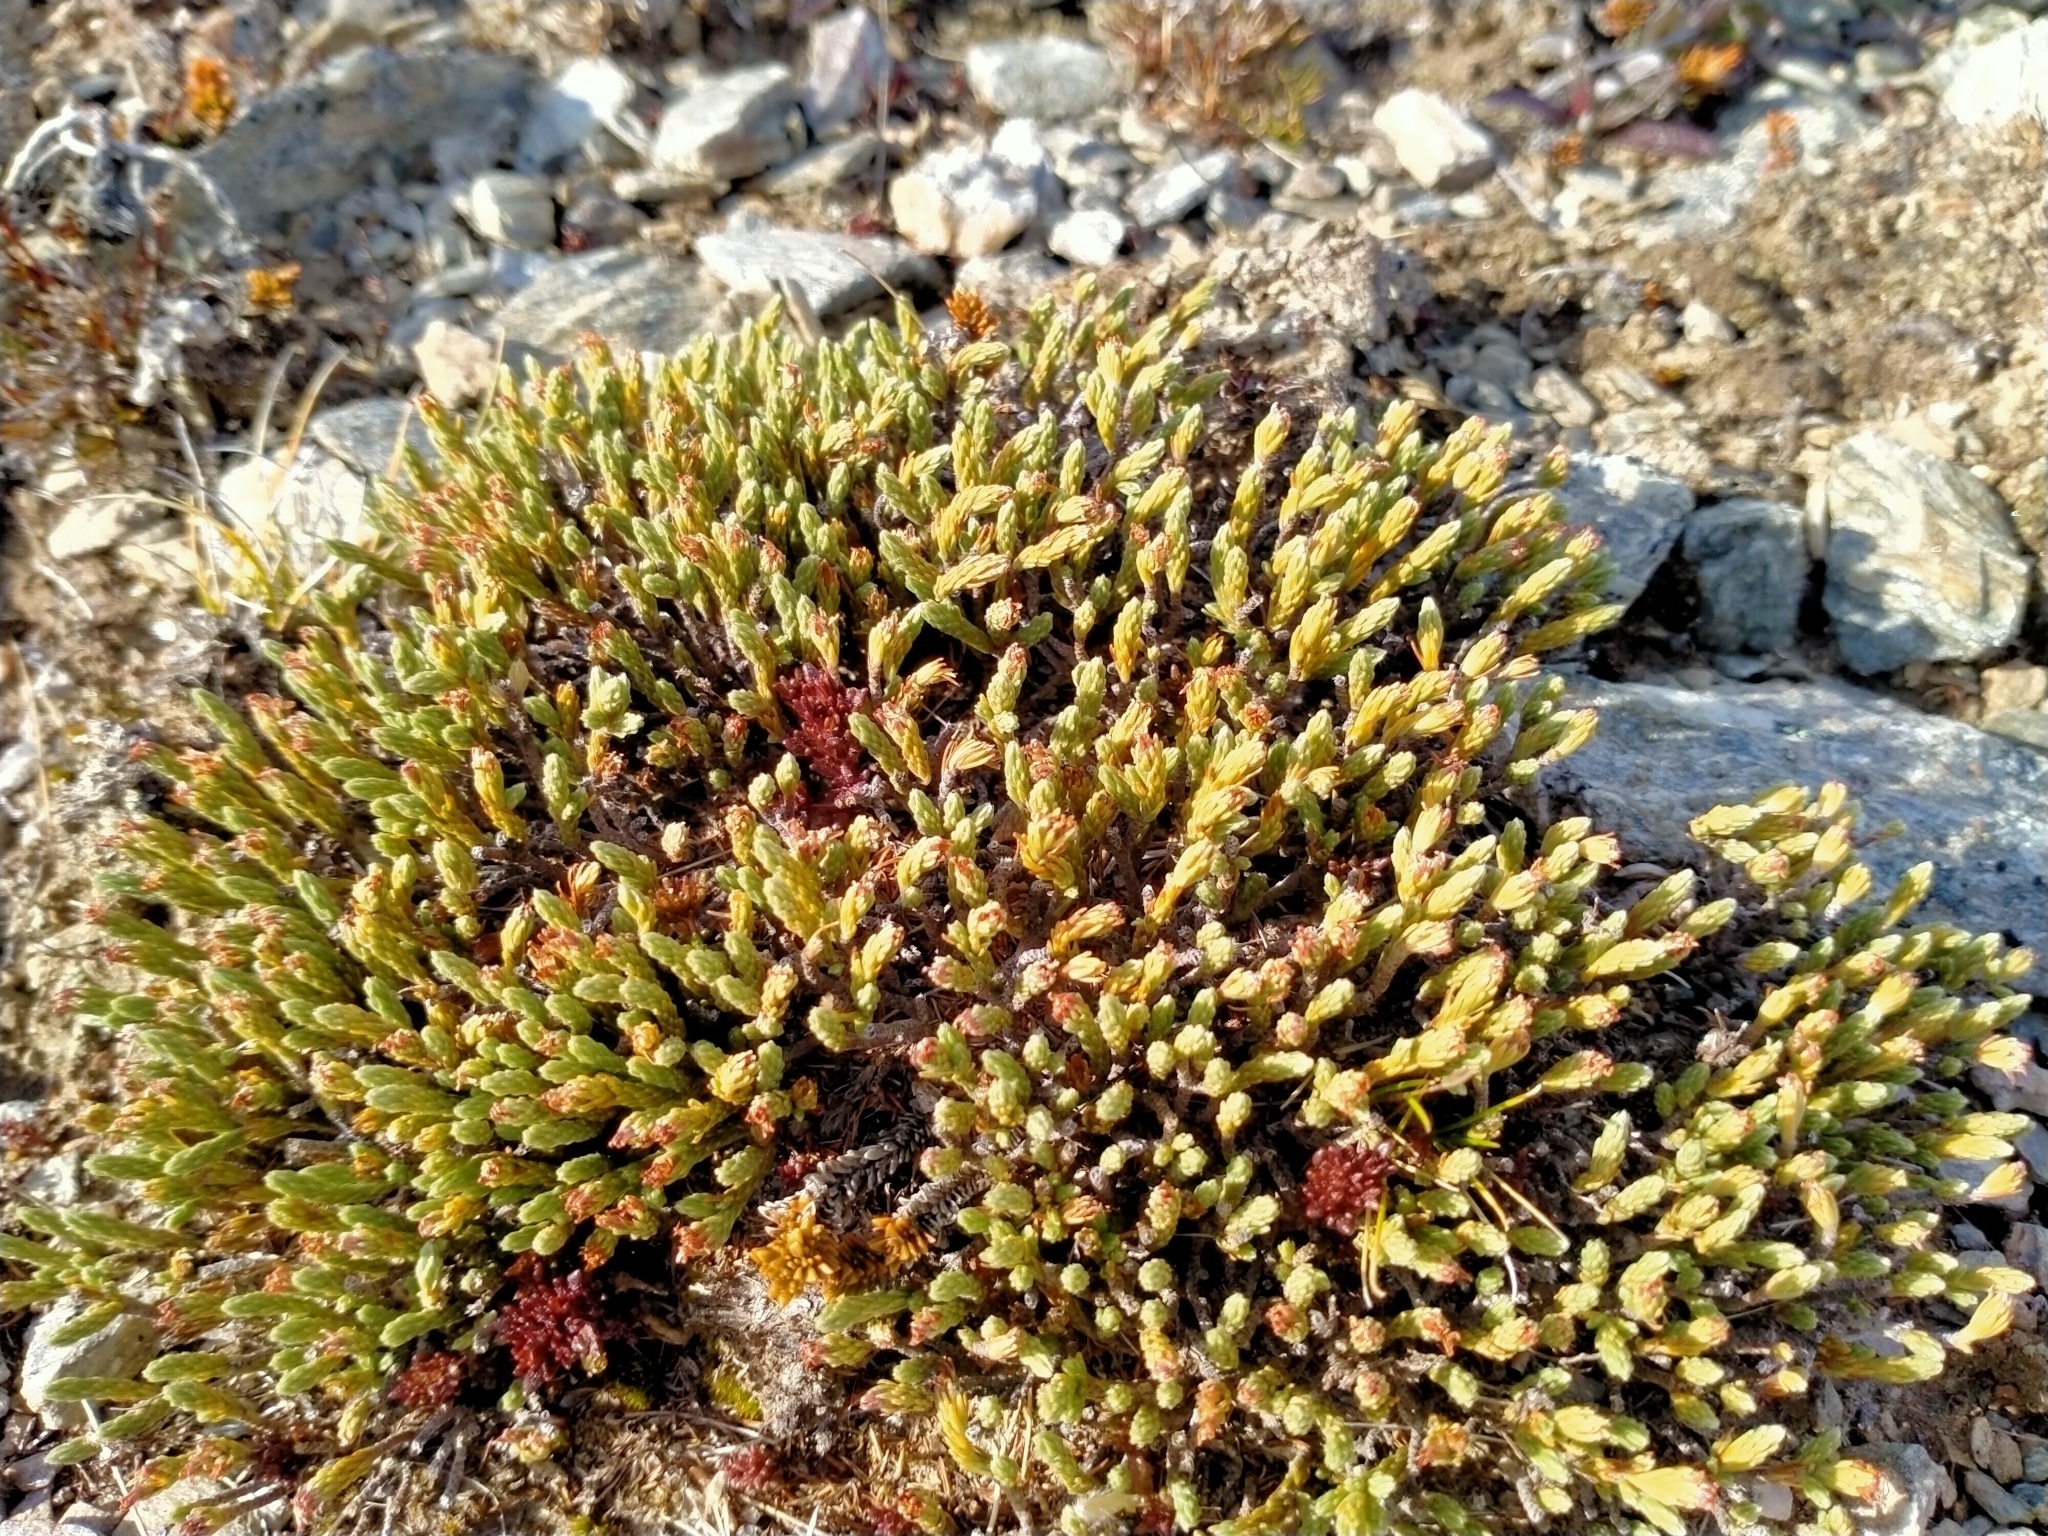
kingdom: Plantae
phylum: Tracheophyta
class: Magnoliopsida
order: Malvales
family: Thymelaeaceae
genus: Kelleria
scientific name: Kelleria dieffenbachii
